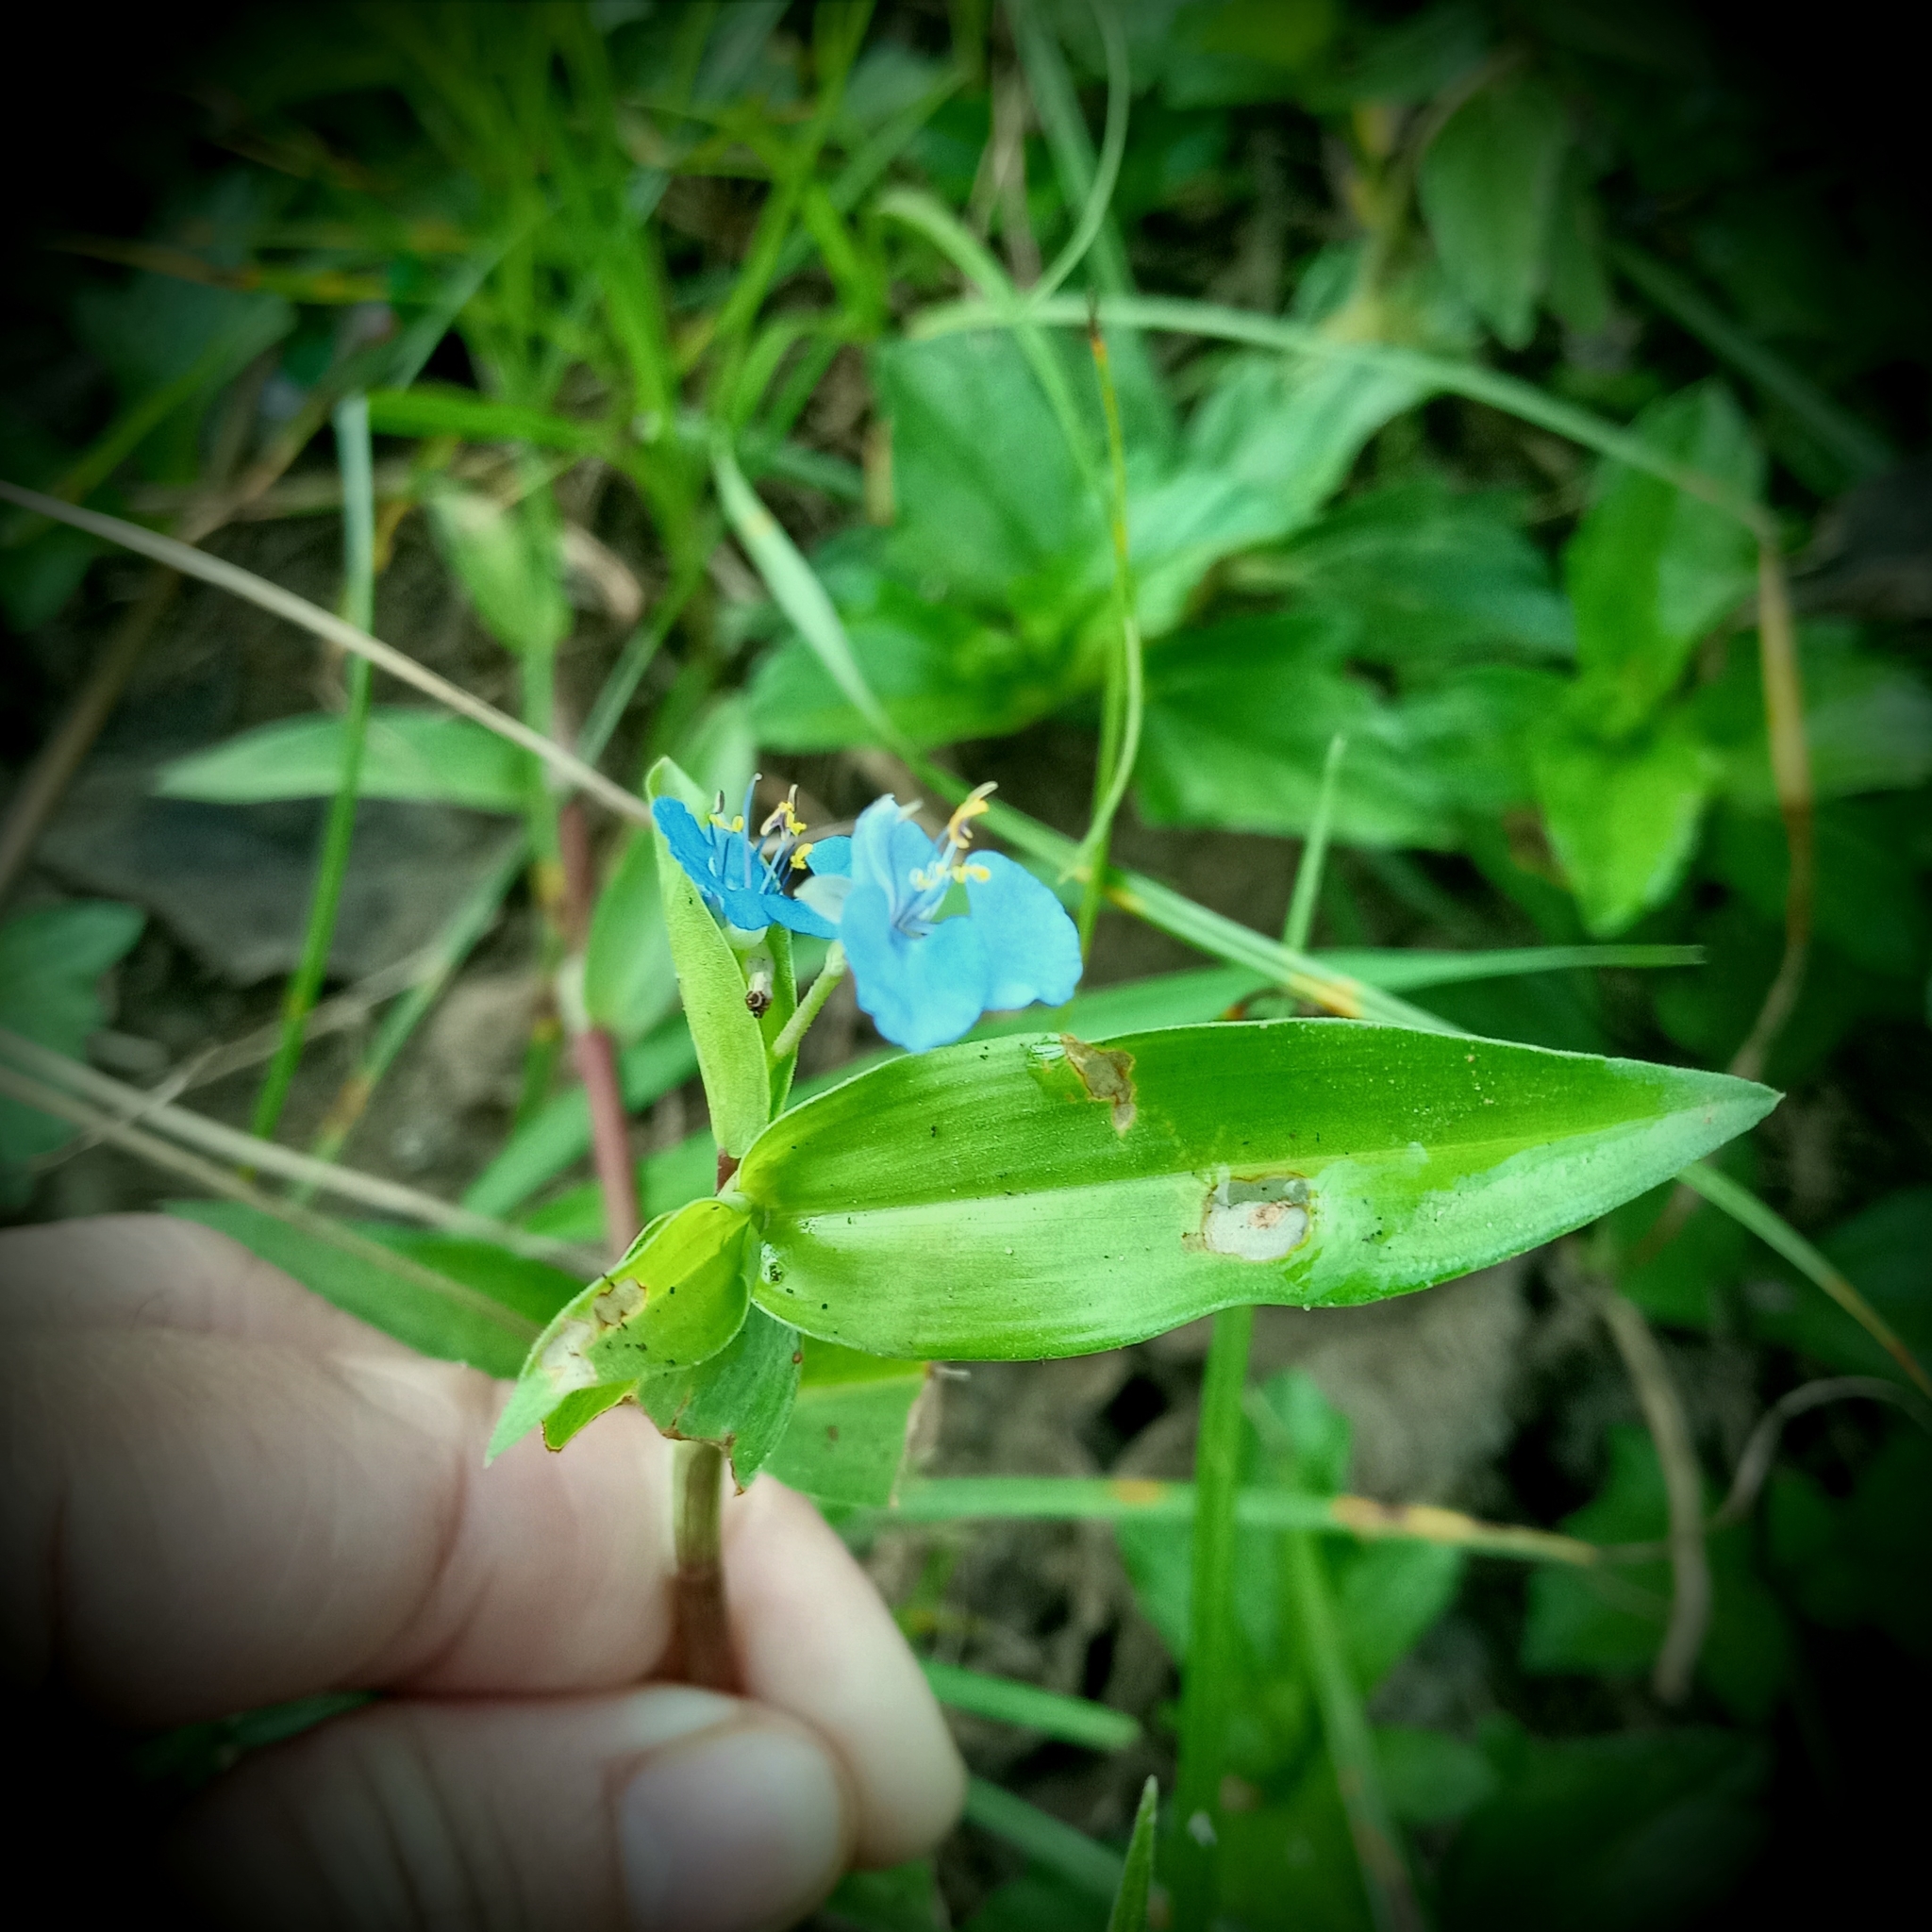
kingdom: Plantae
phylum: Tracheophyta
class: Liliopsida
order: Commelinales
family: Commelinaceae
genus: Commelina
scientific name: Commelina diffusa
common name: Climbing dayflower
